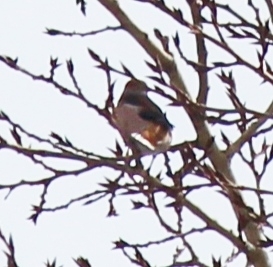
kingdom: Animalia
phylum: Chordata
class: Aves
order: Passeriformes
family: Fringillidae
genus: Coccothraustes
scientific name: Coccothraustes coccothraustes
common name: Hawfinch
